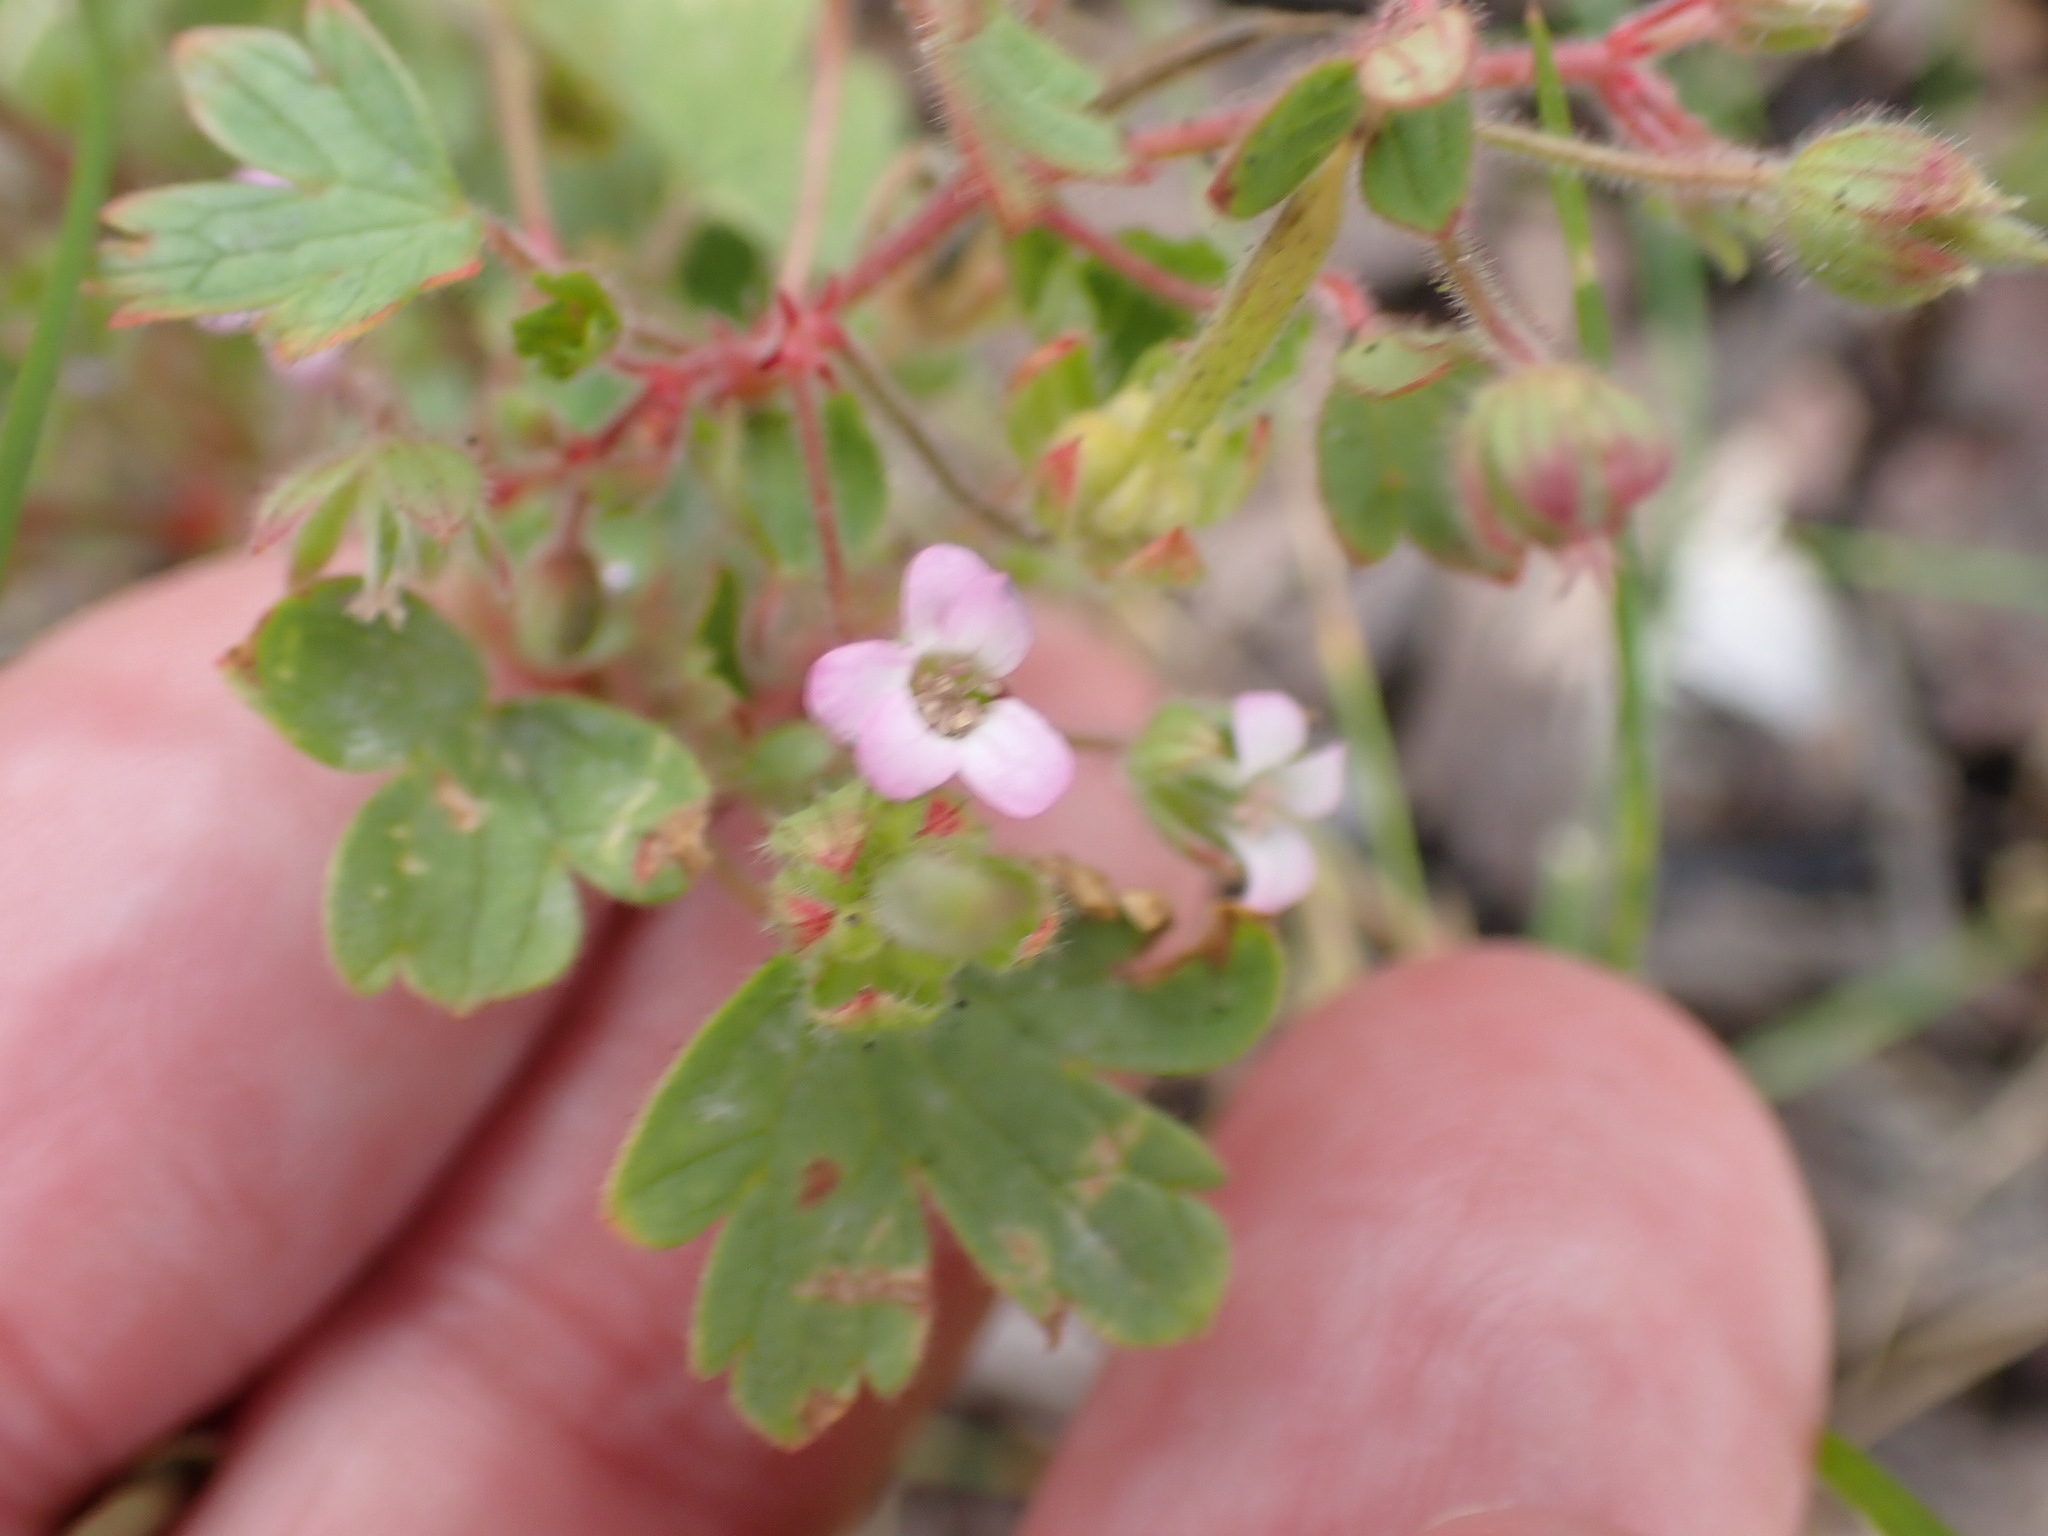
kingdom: Plantae
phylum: Tracheophyta
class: Magnoliopsida
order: Geraniales
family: Geraniaceae
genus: Geranium
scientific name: Geranium rotundifolium
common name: Round-leaved crane's-bill
